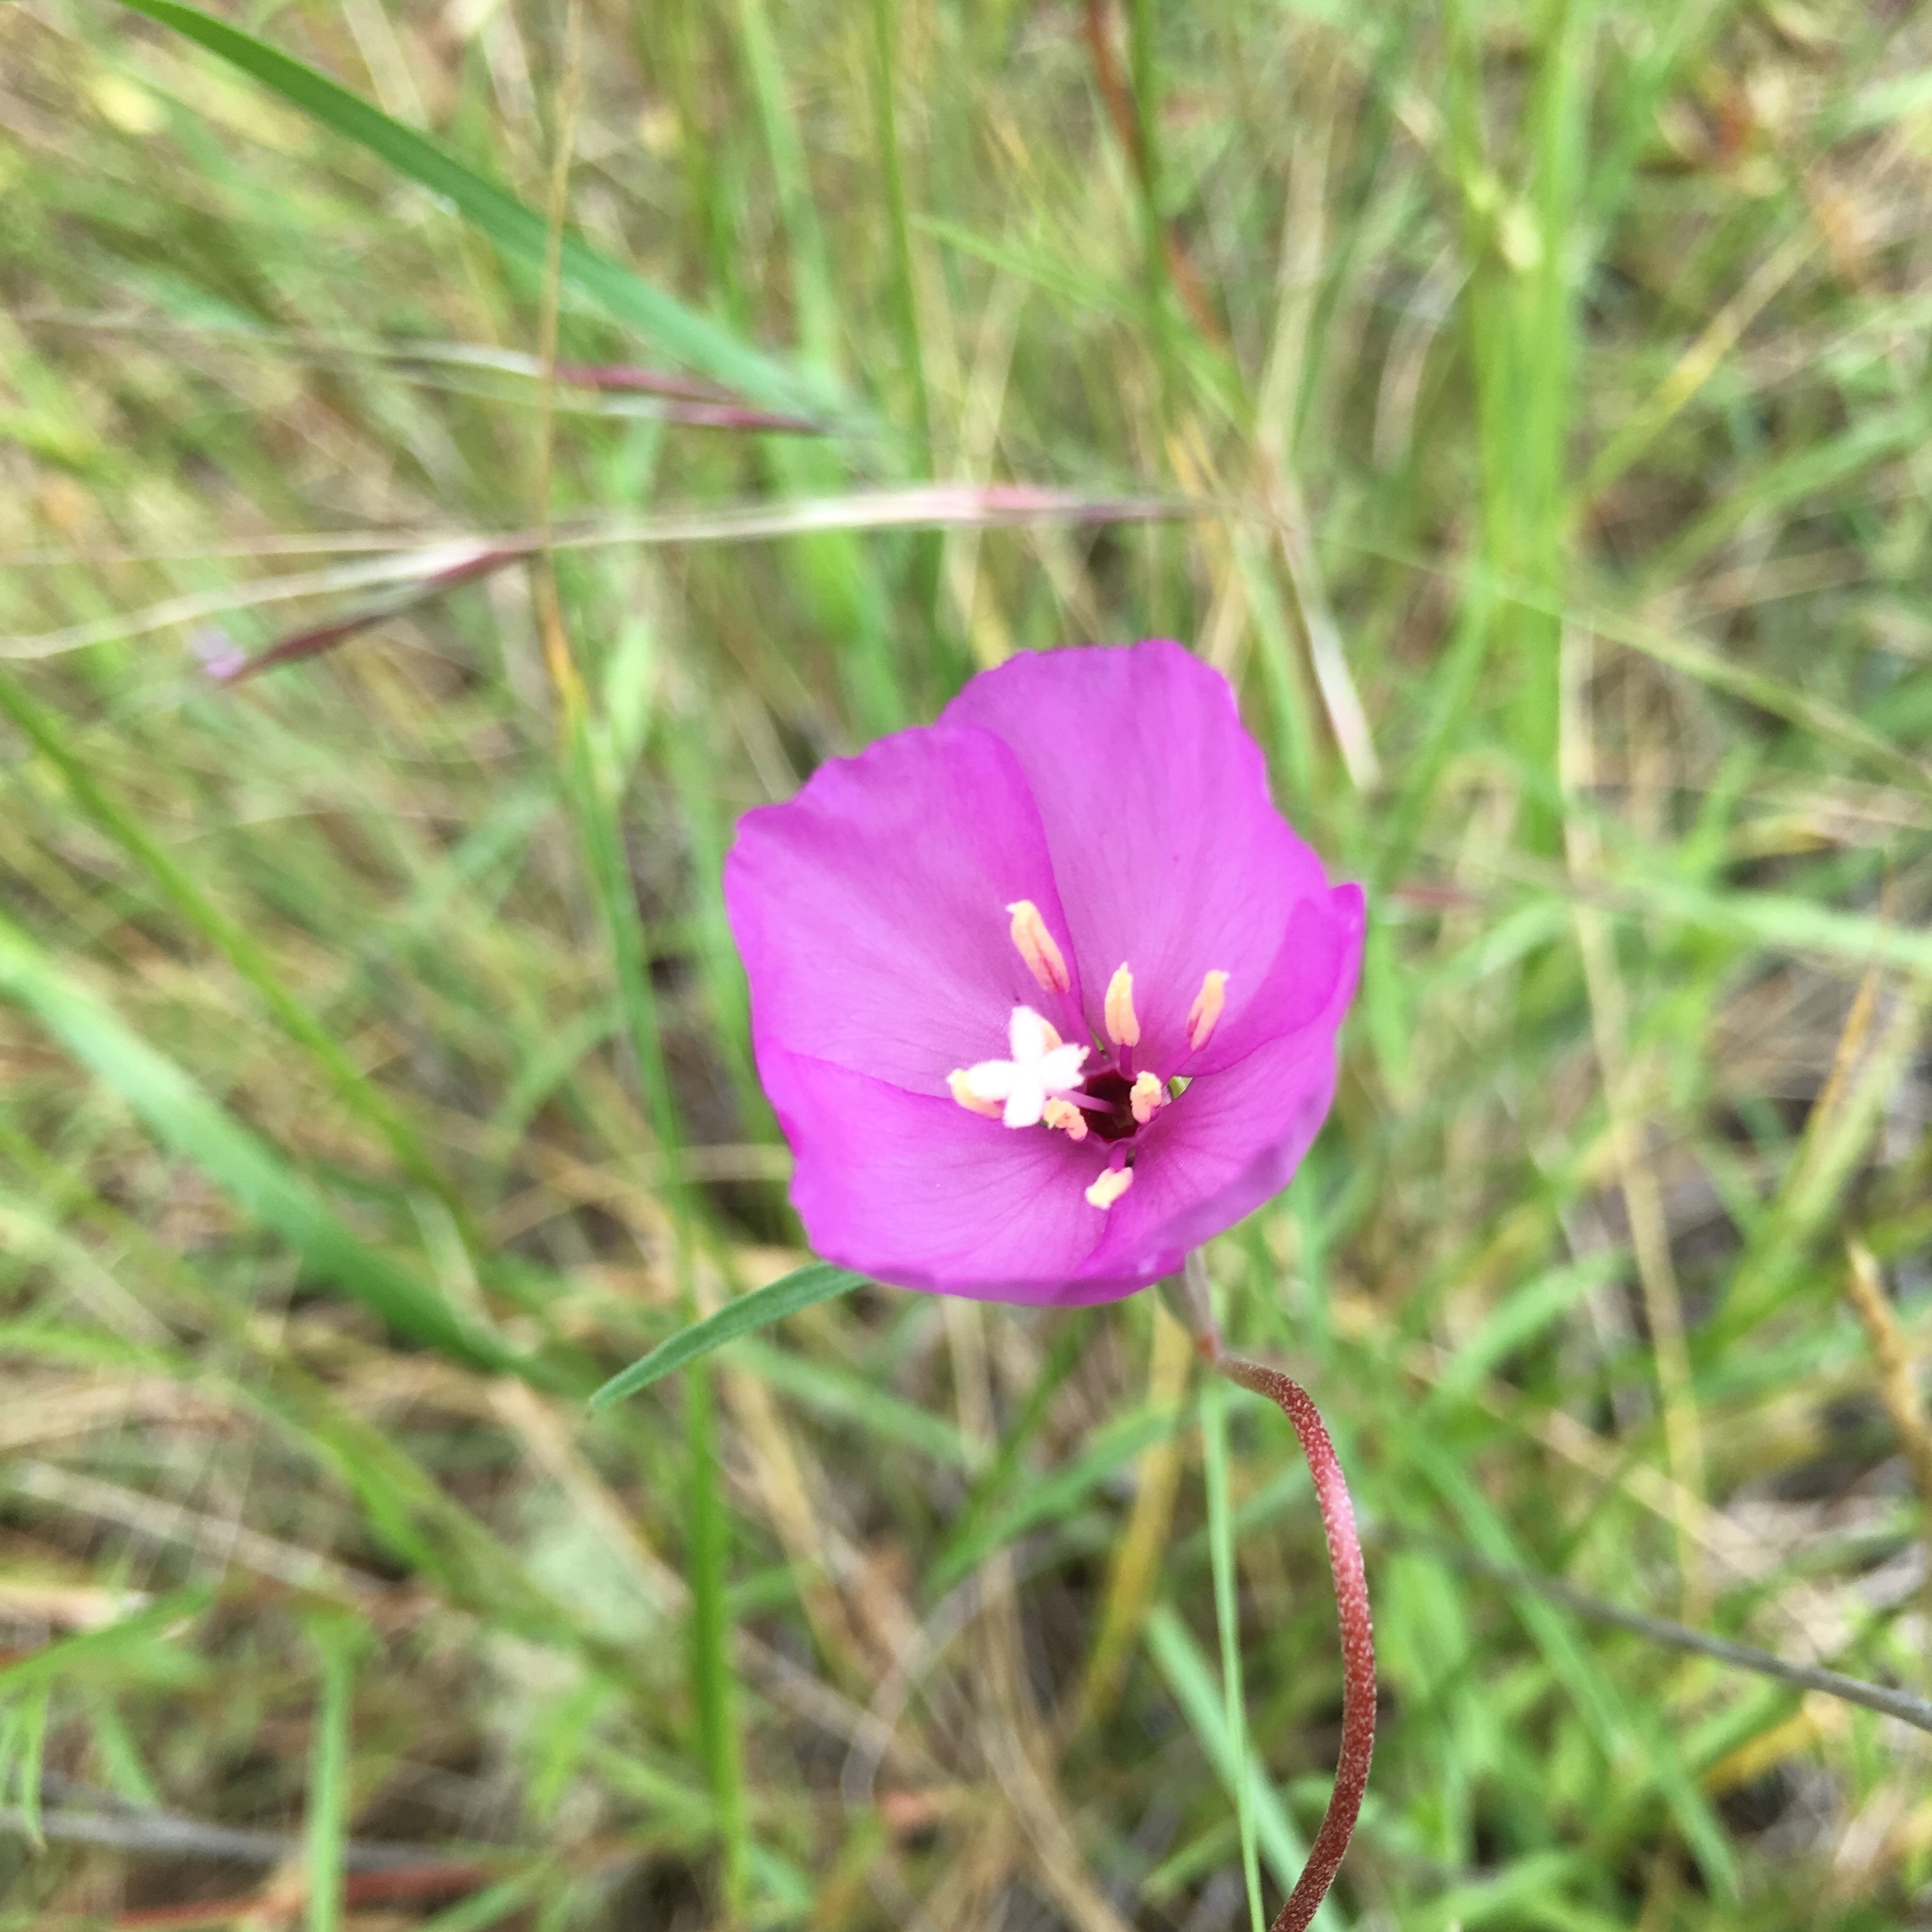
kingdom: Plantae
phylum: Tracheophyta
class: Magnoliopsida
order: Myrtales
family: Onagraceae
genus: Clarkia
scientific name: Clarkia gracilis
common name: Graceful clarkia
